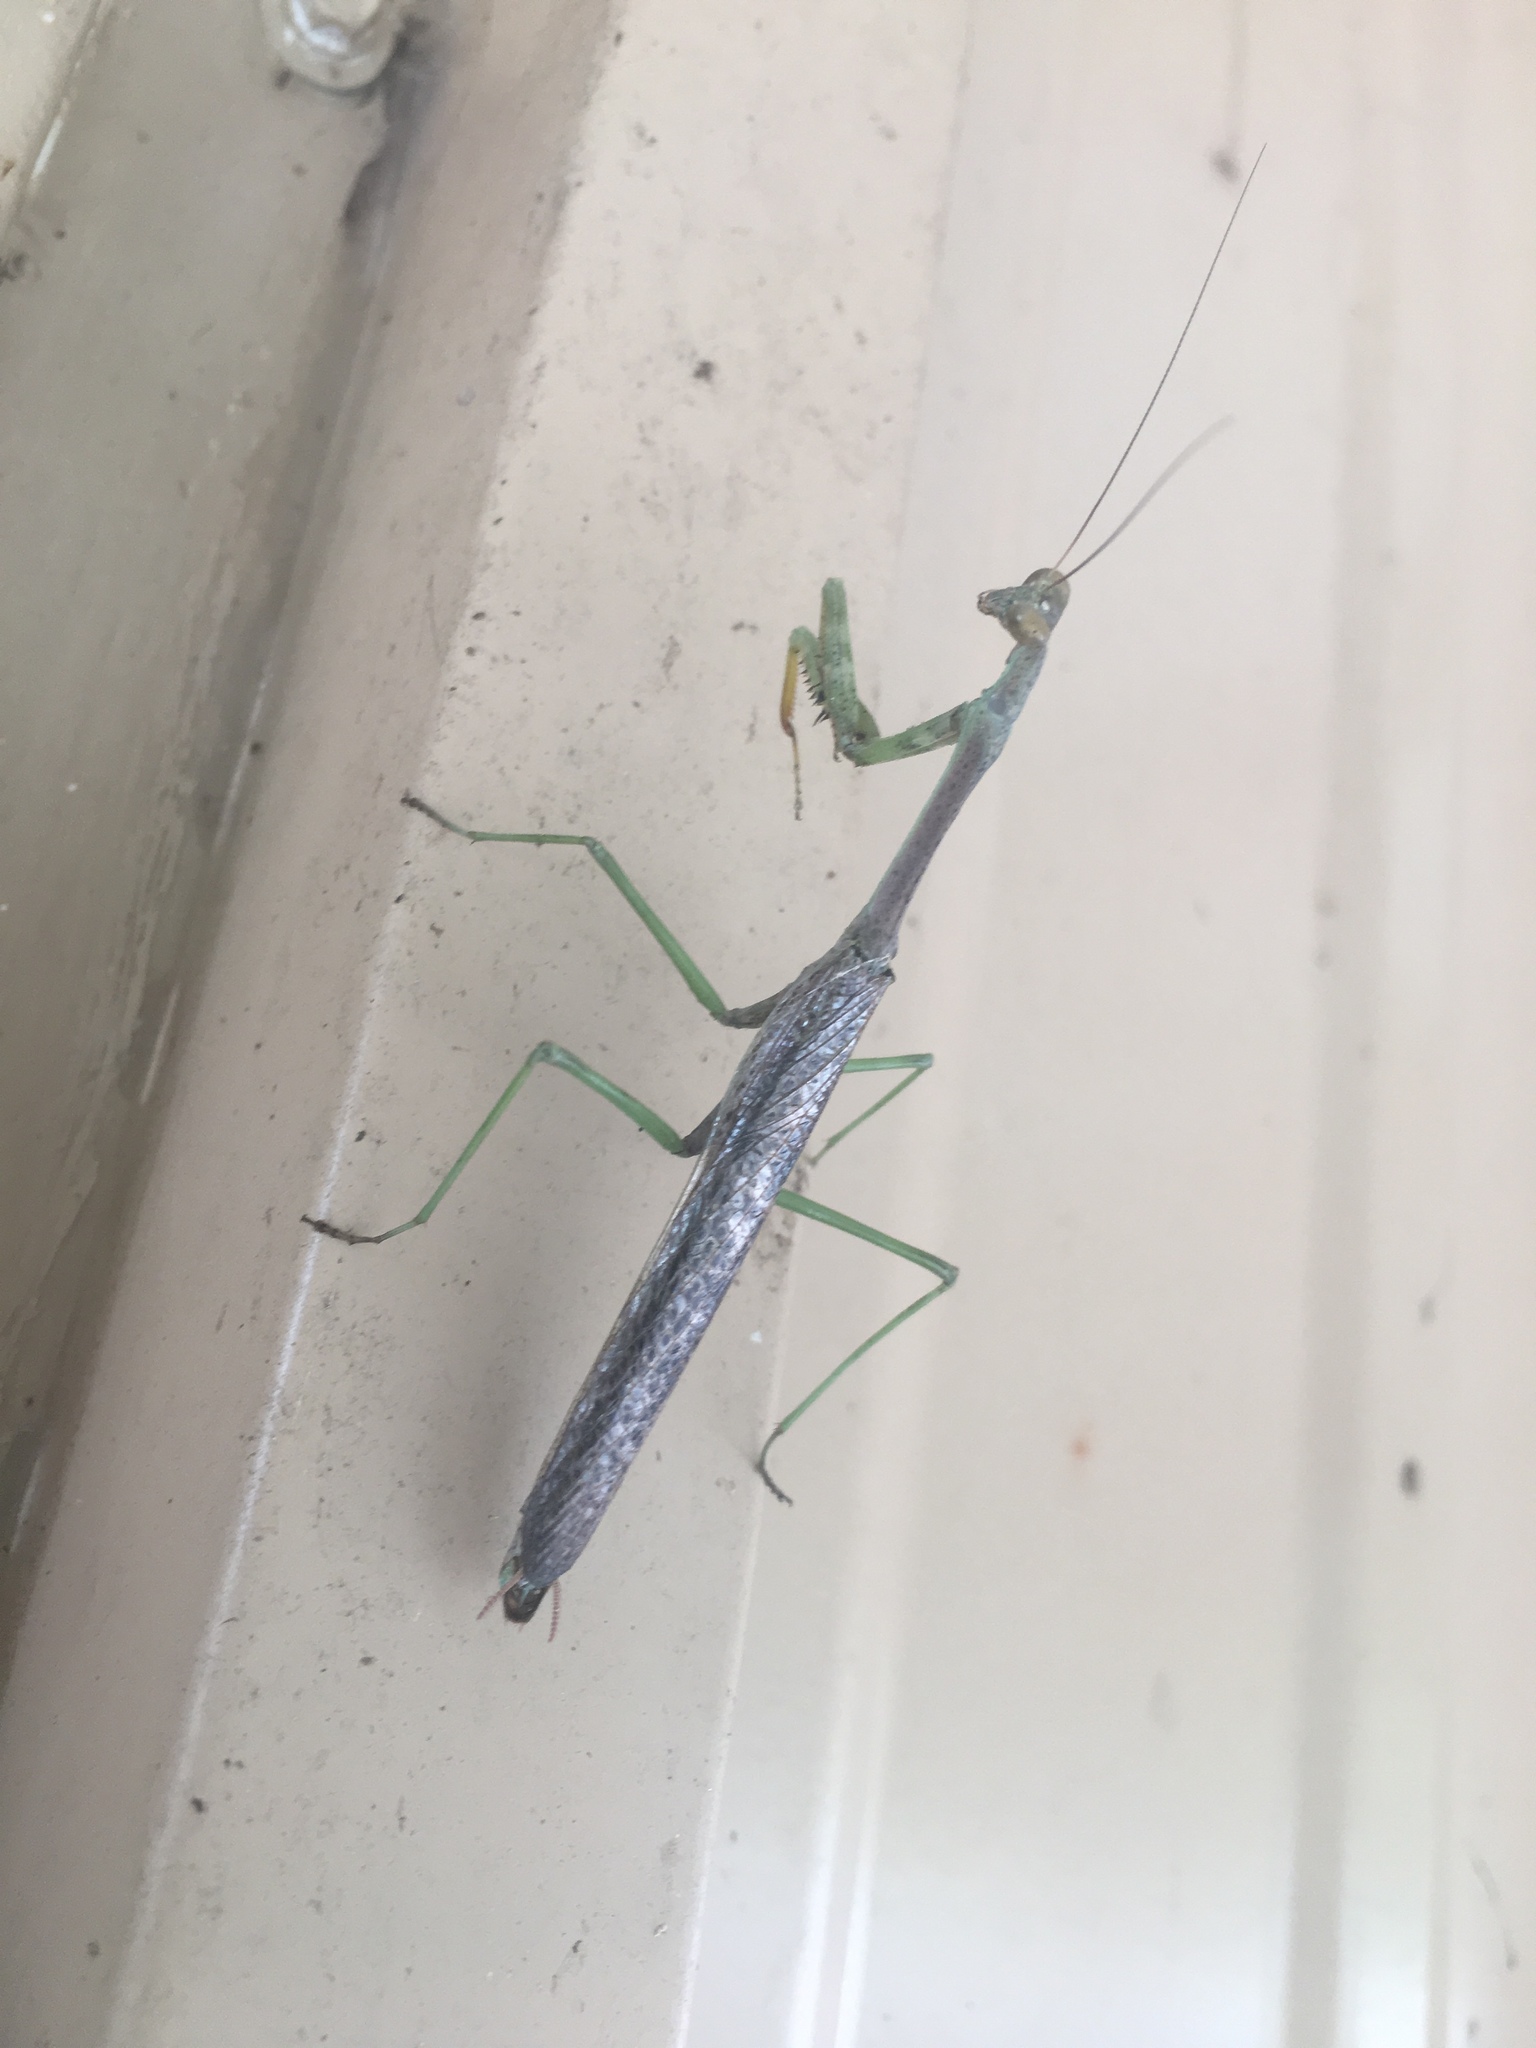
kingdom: Animalia
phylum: Arthropoda
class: Insecta
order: Mantodea
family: Mantidae
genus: Stagmomantis
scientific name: Stagmomantis carolina
